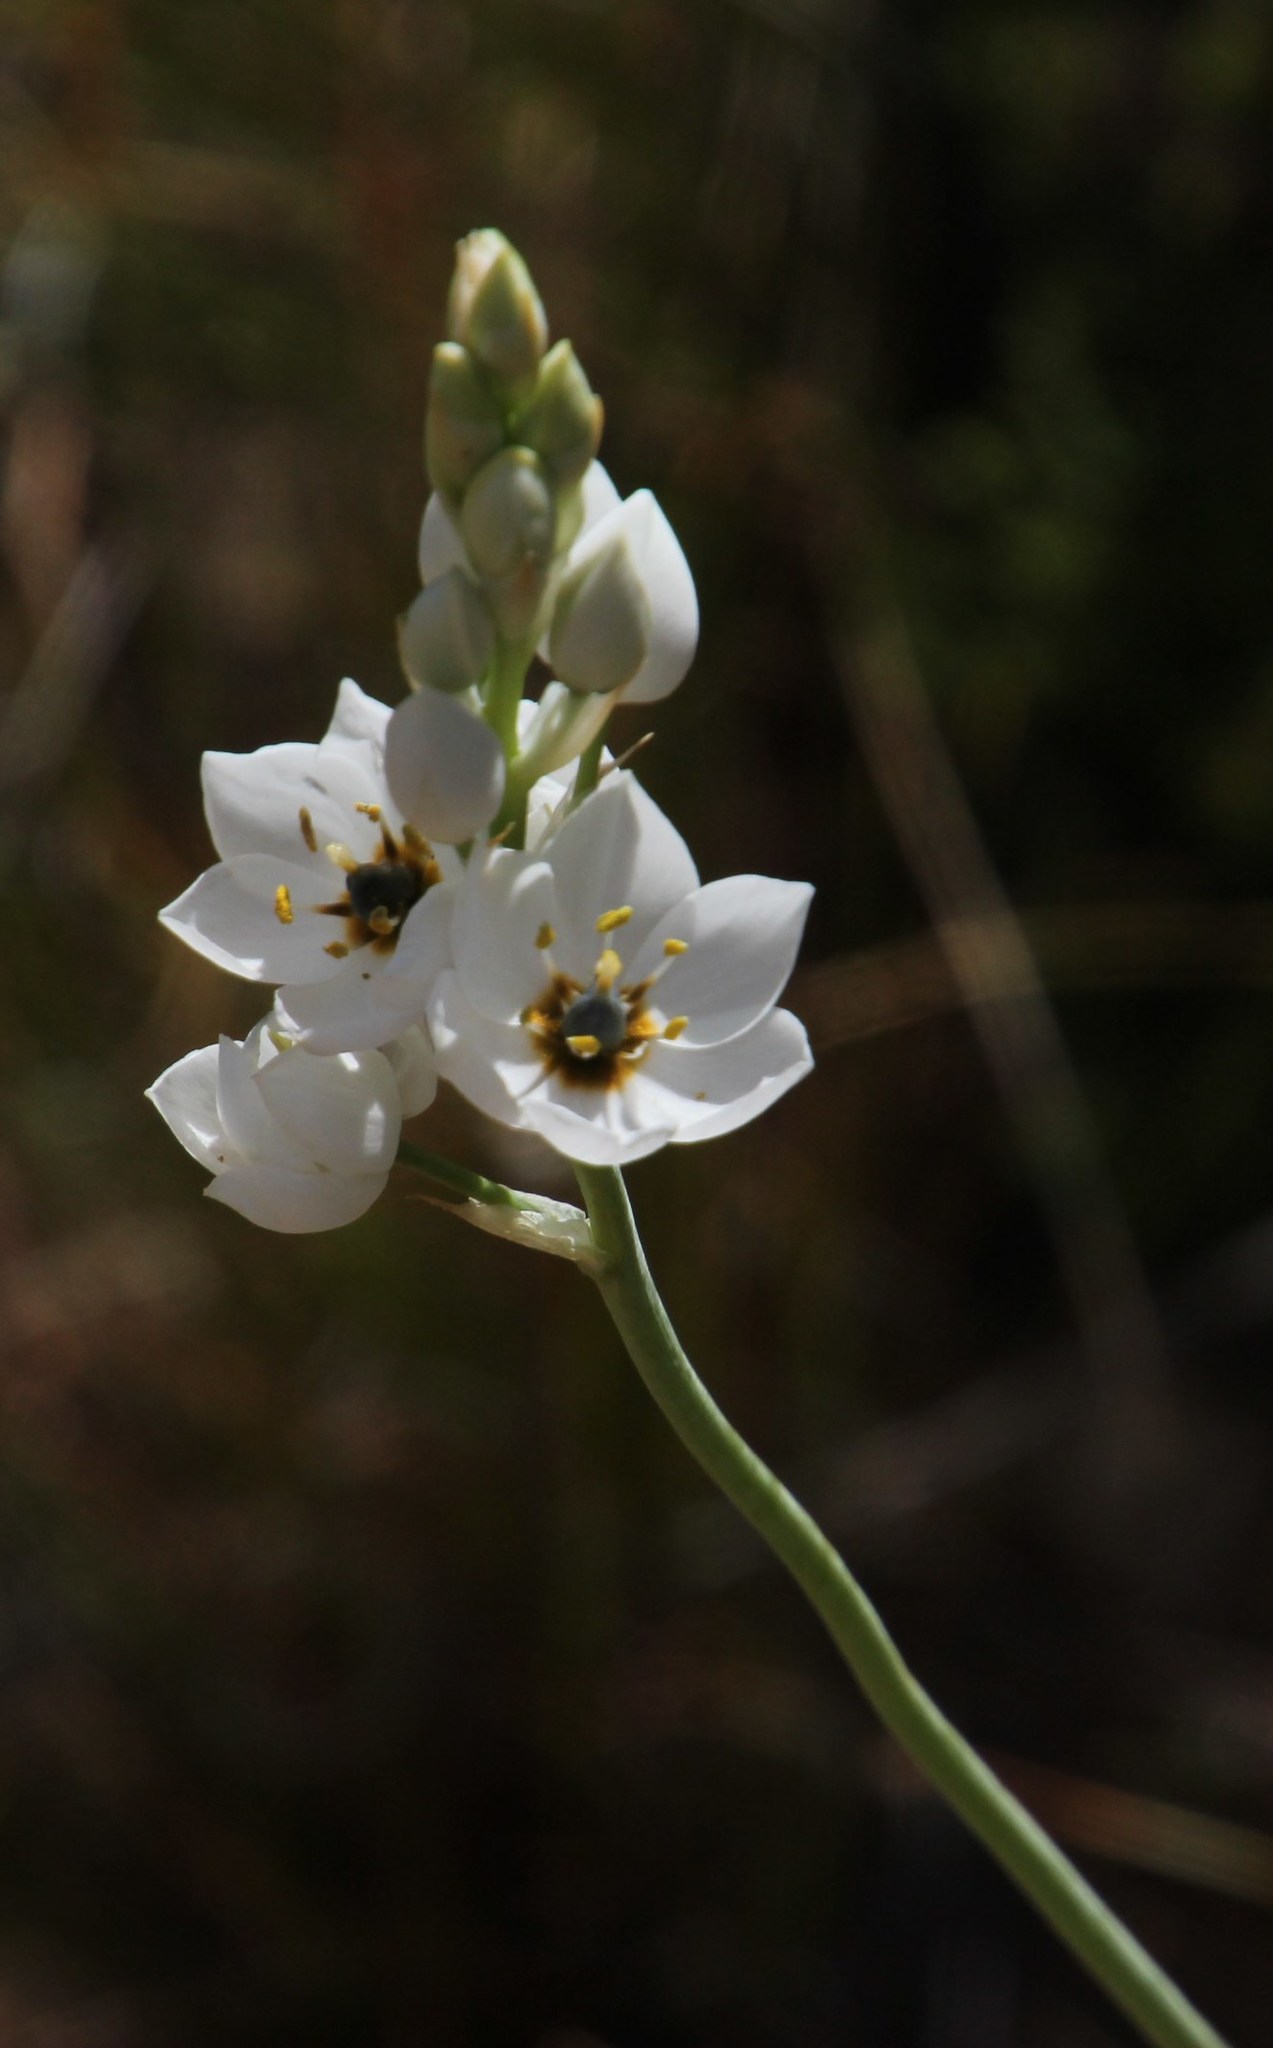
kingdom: Plantae
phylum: Tracheophyta
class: Liliopsida
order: Asparagales
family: Asparagaceae
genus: Ornithogalum
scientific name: Ornithogalum thyrsoides
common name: Chincherinchee
